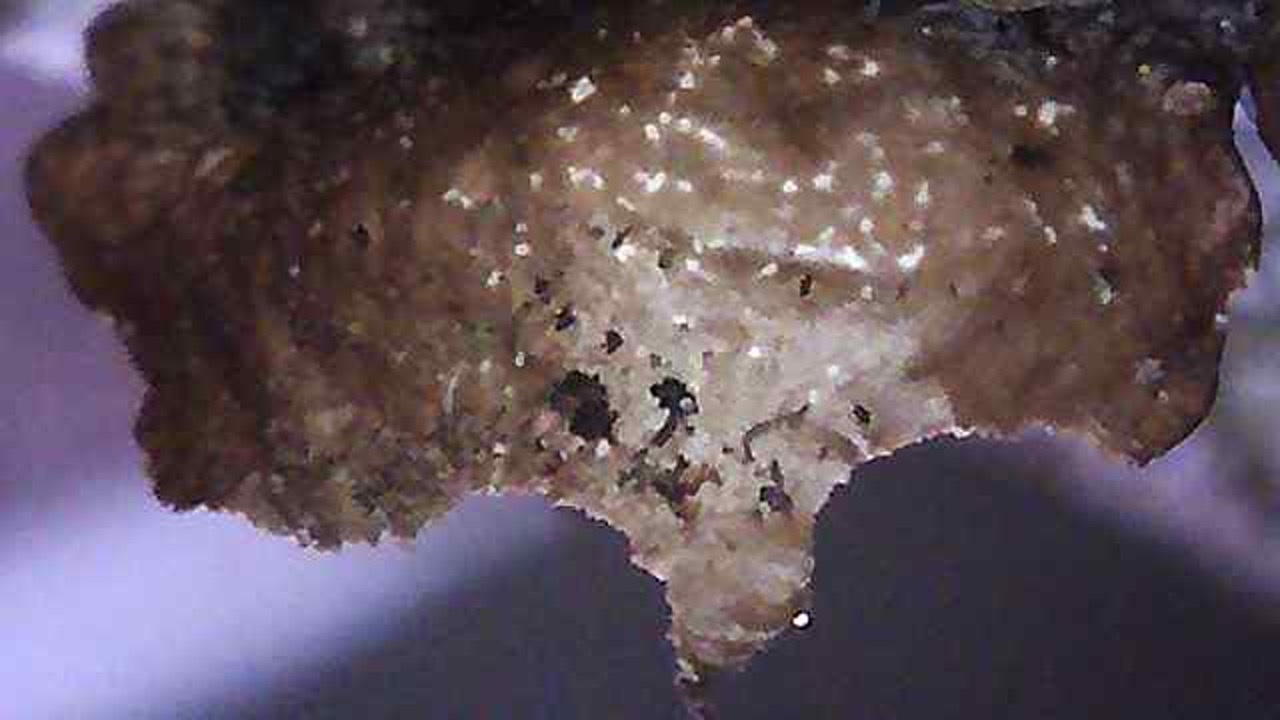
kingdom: Fungi
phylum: Ascomycota
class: Lecanoromycetes
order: Lecanorales
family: Parmeliaceae
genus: Cetrelia
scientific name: Cetrelia cetrarioides
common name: Speckled iceland lichen
